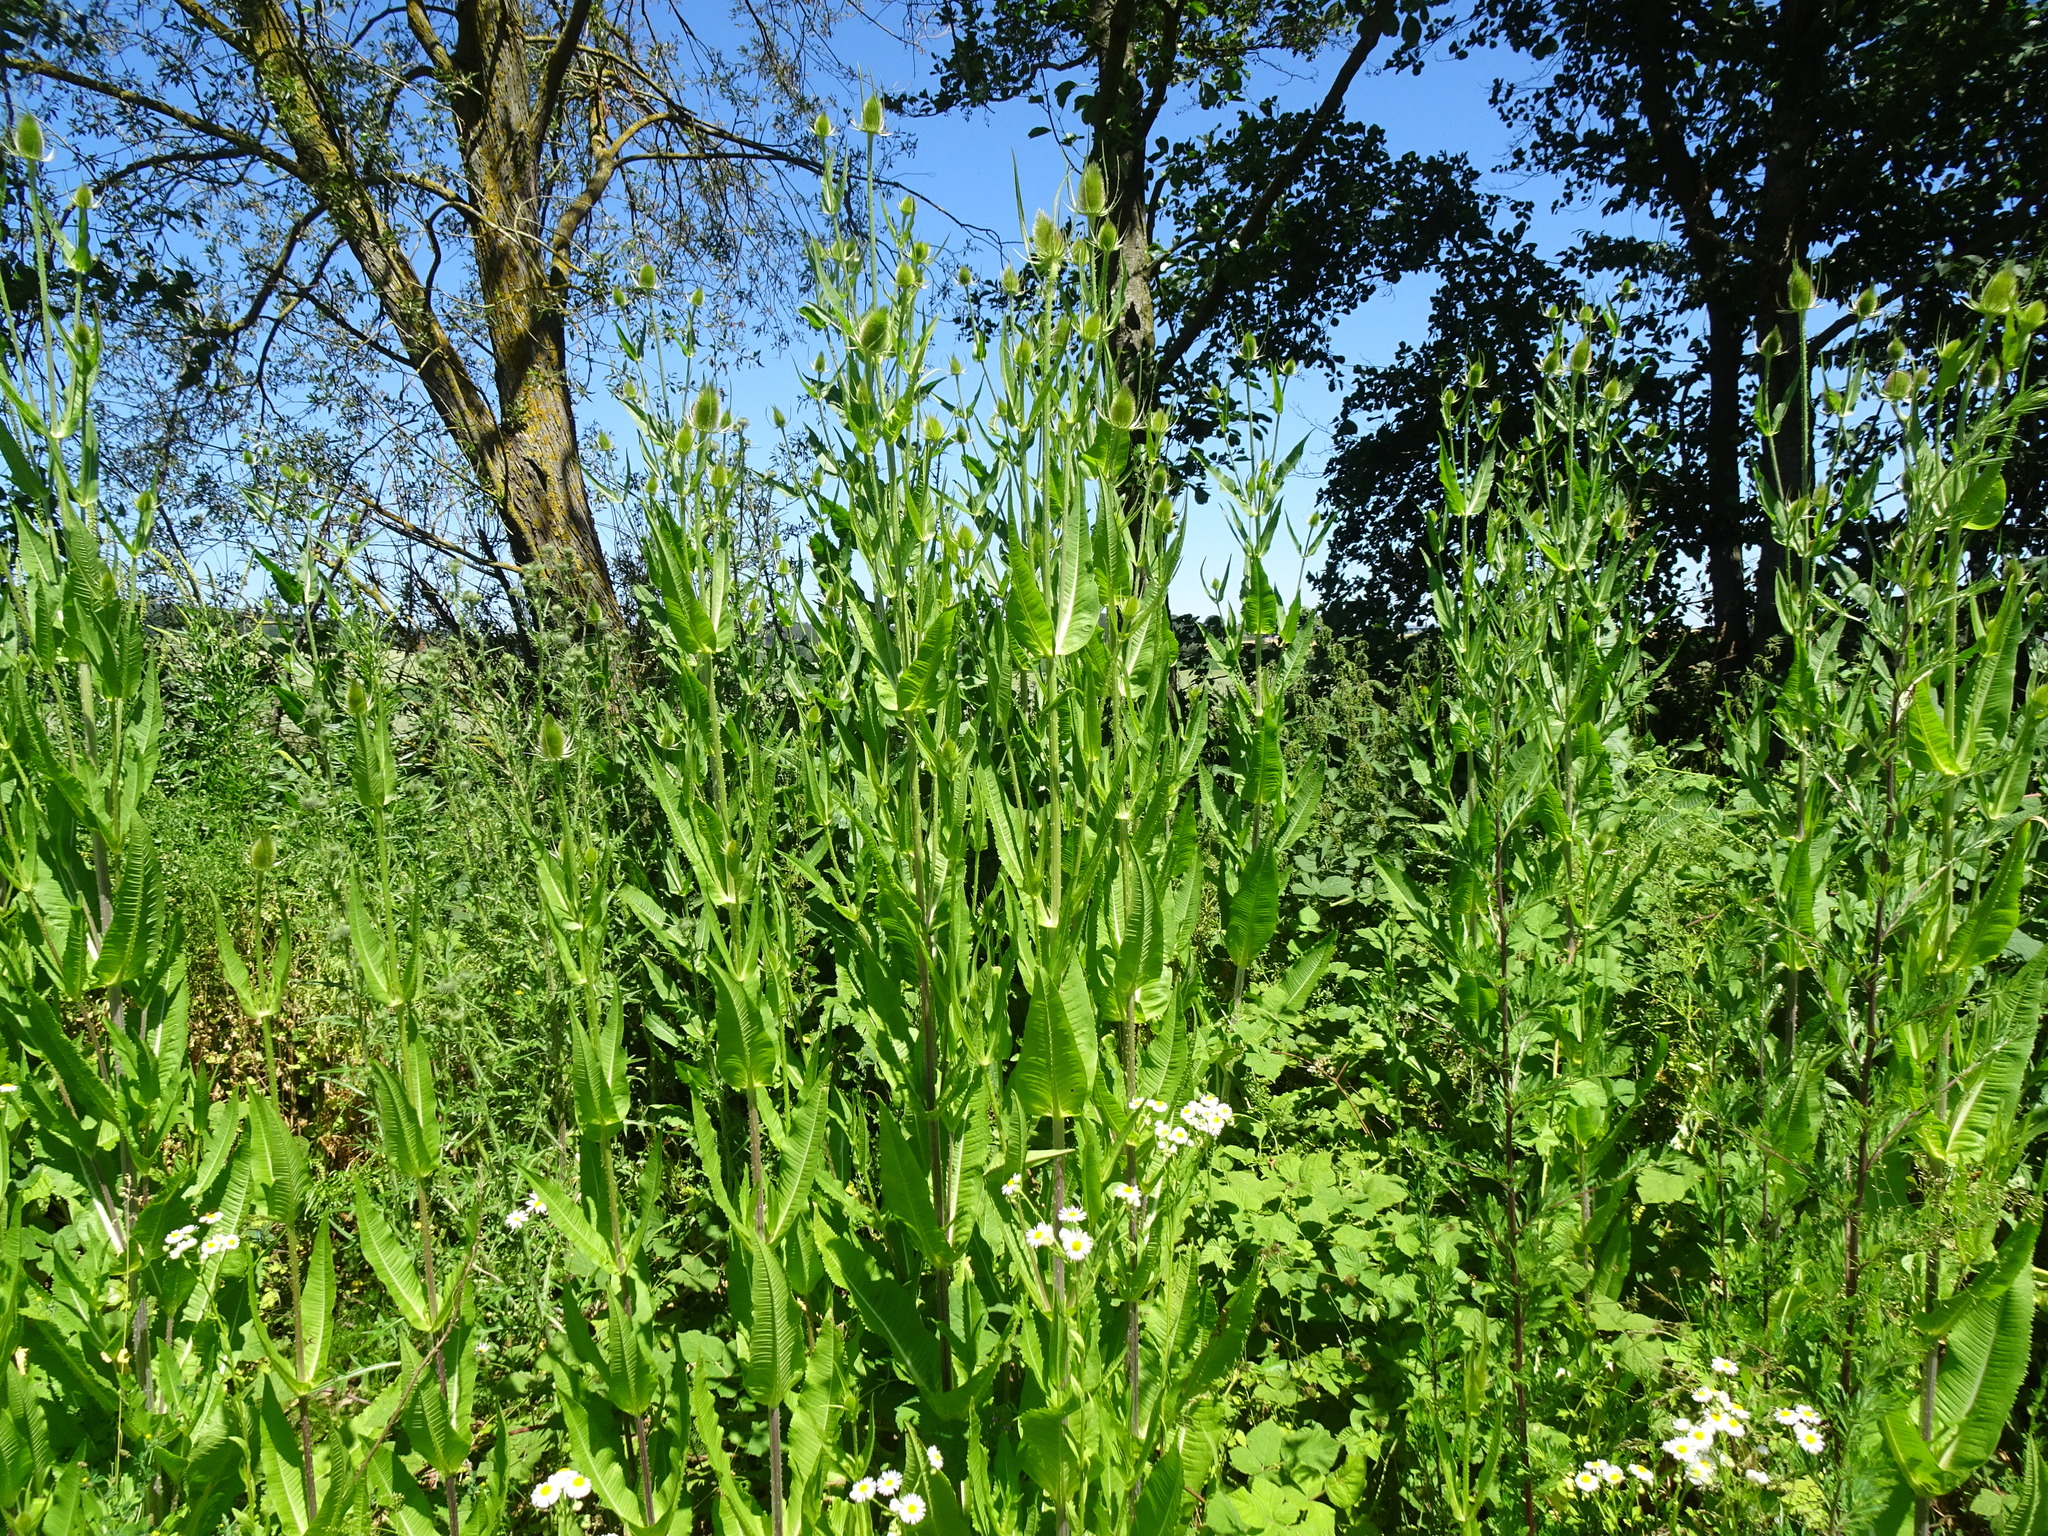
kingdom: Plantae
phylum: Tracheophyta
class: Magnoliopsida
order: Dipsacales
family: Caprifoliaceae
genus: Dipsacus
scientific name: Dipsacus fullonum
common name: Teasel
